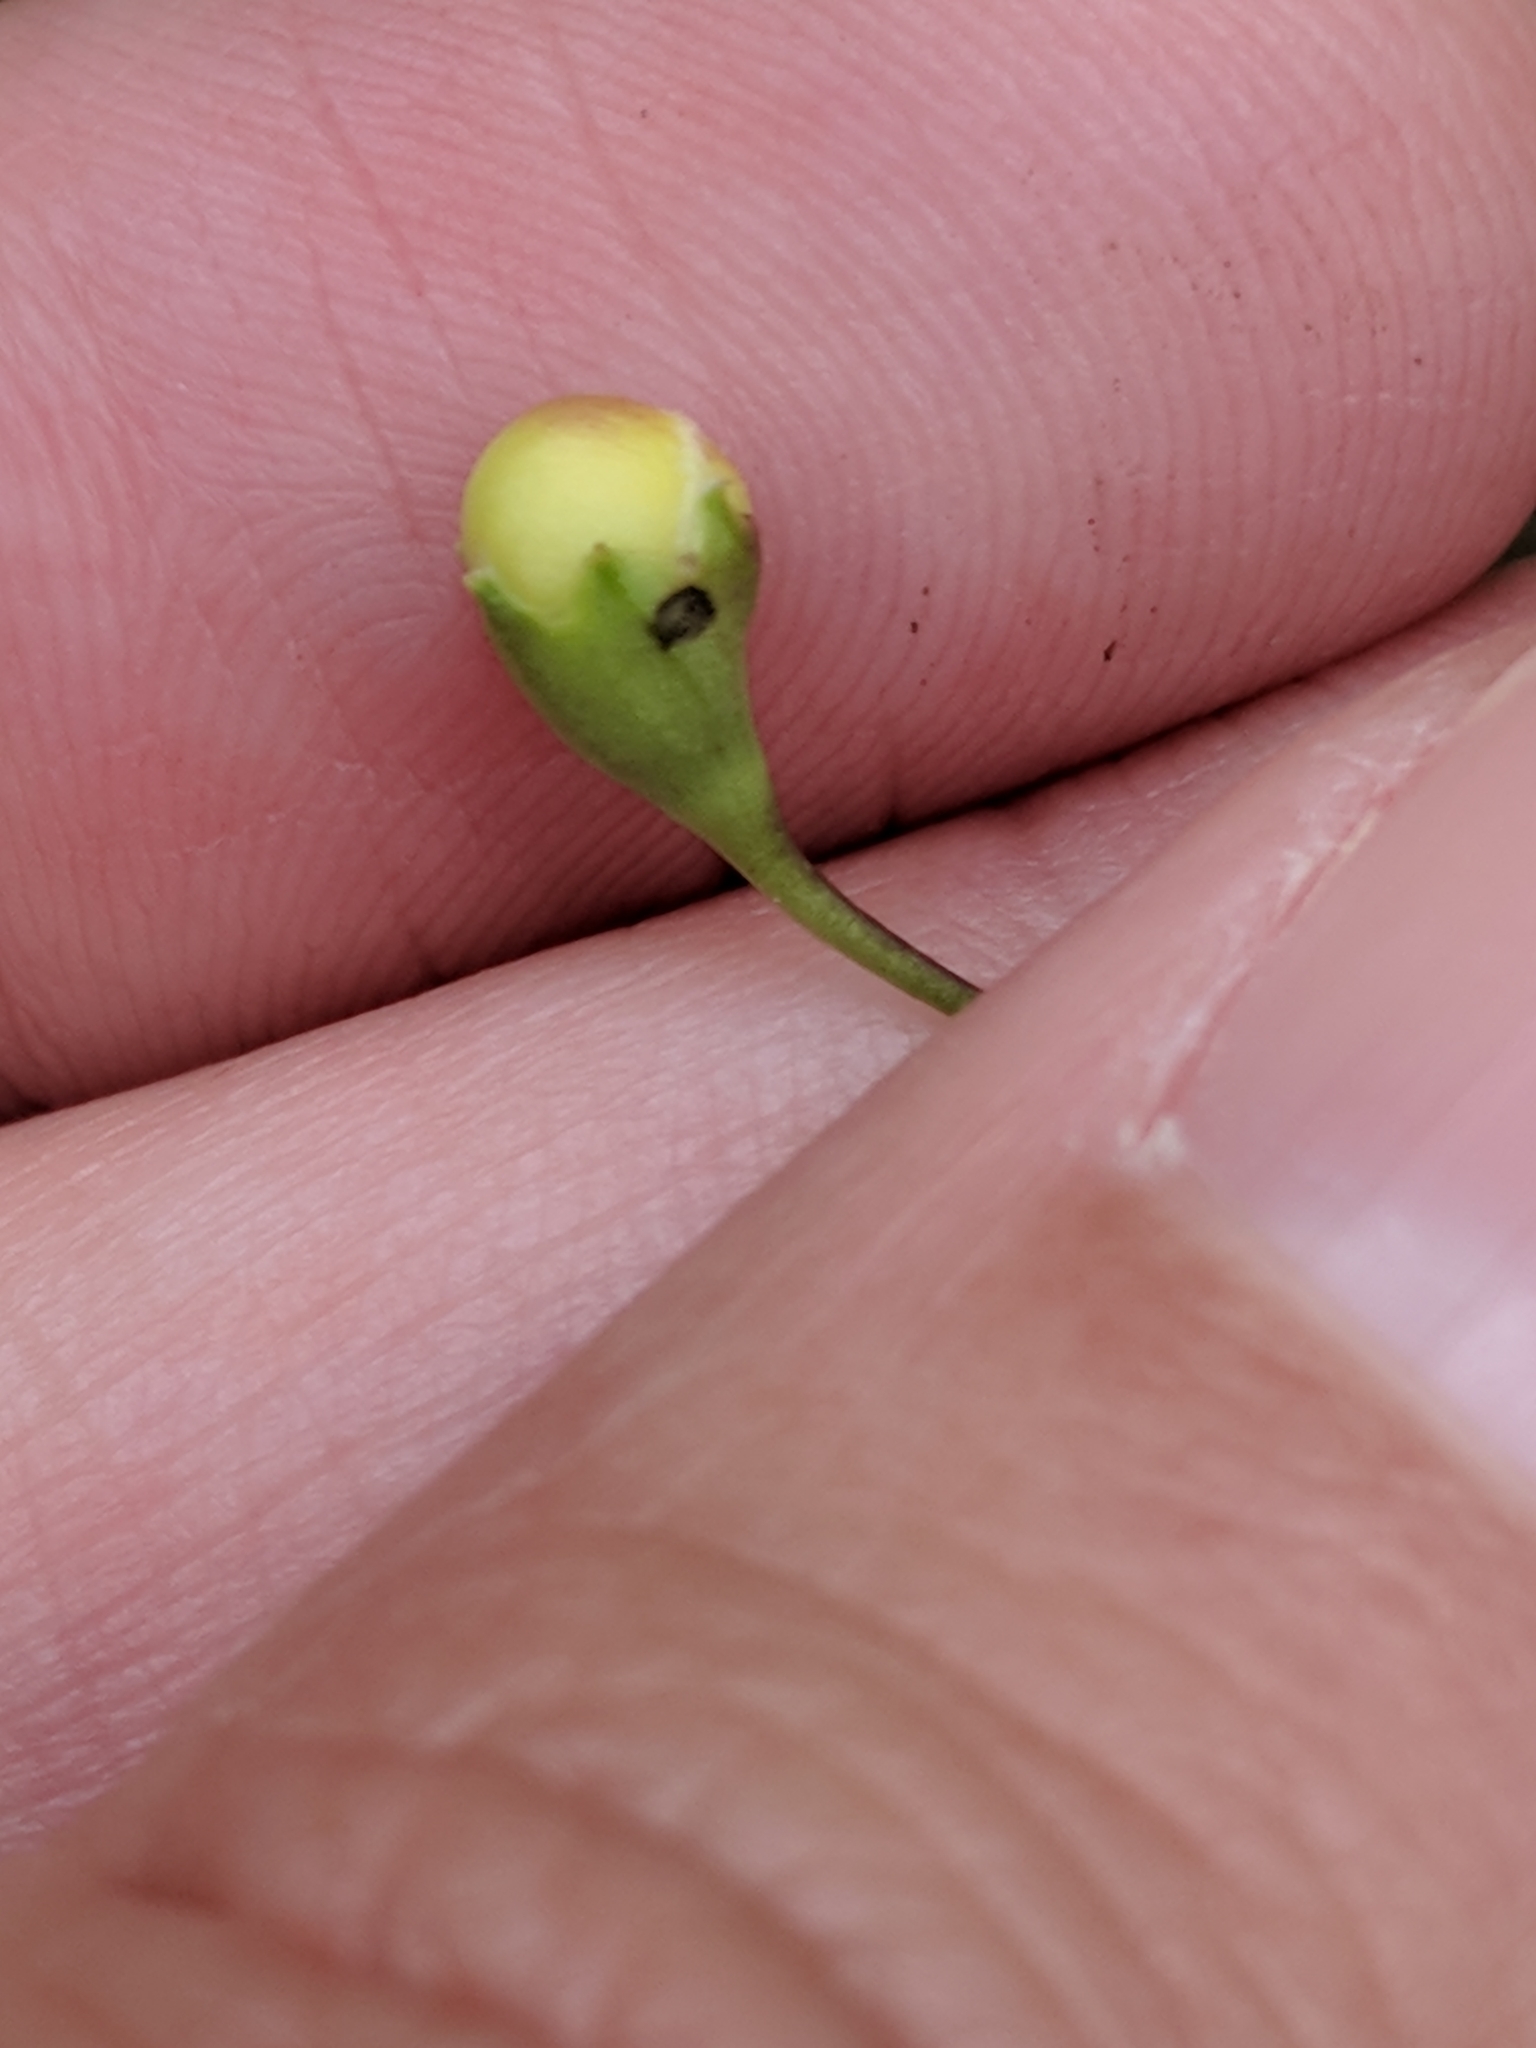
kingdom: Plantae
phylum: Tracheophyta
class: Magnoliopsida
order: Lamiales
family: Orobanchaceae
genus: Agalinis
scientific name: Agalinis strictifolia
